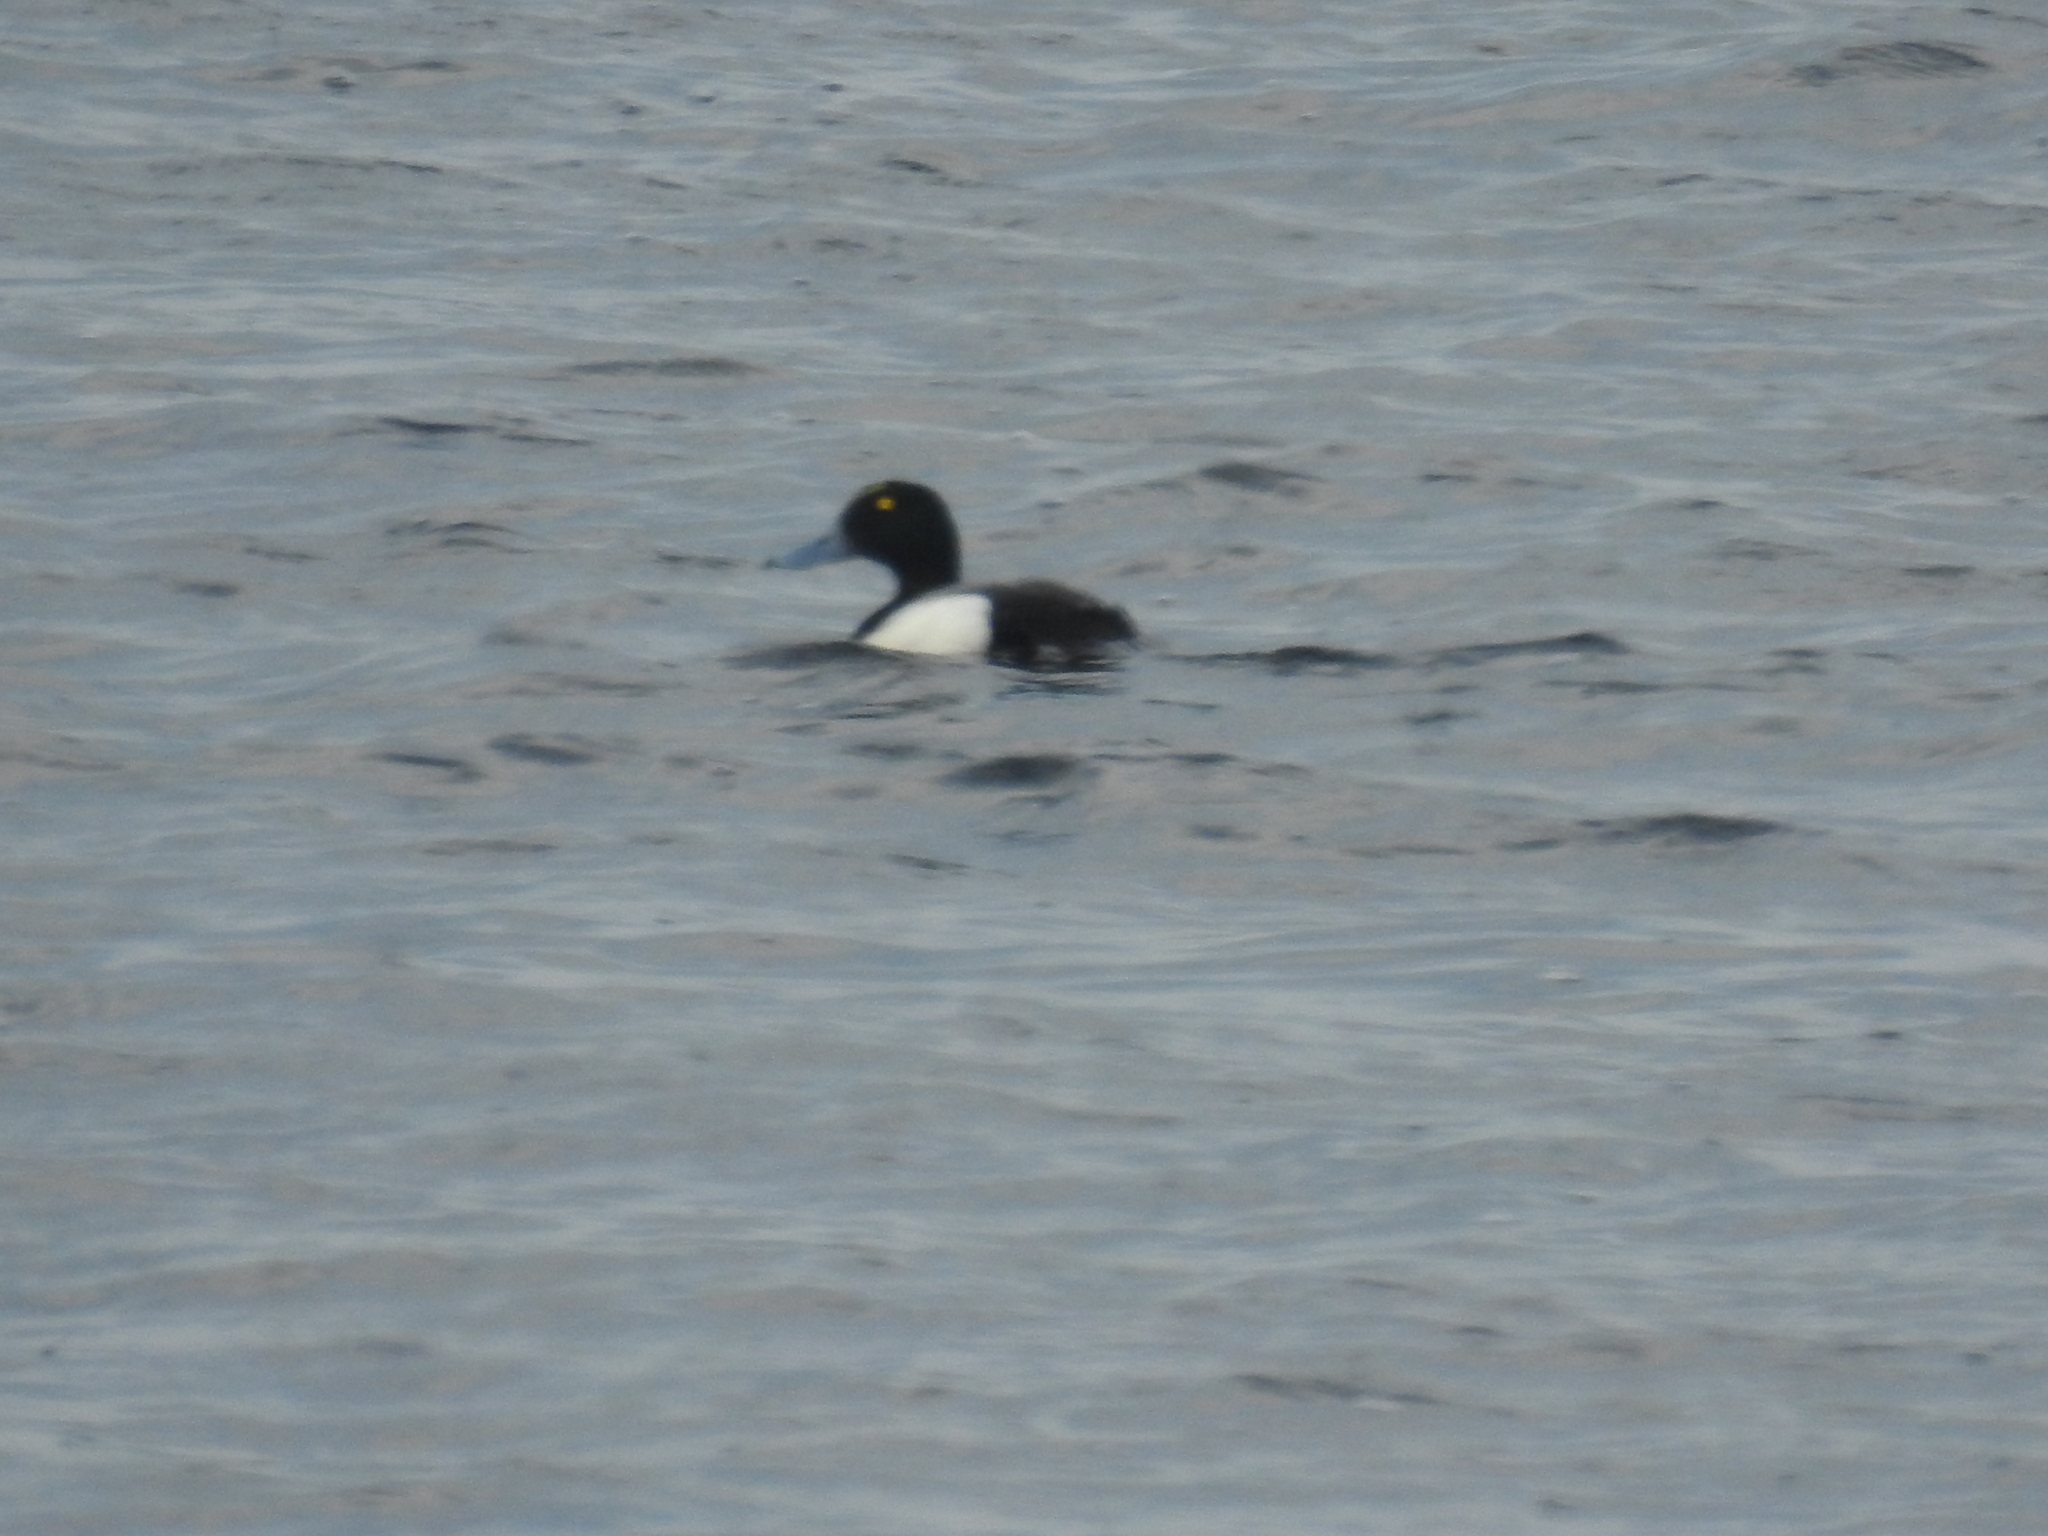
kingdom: Animalia
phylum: Chordata
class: Aves
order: Anseriformes
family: Anatidae
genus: Aythya
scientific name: Aythya marila
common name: Greater scaup
